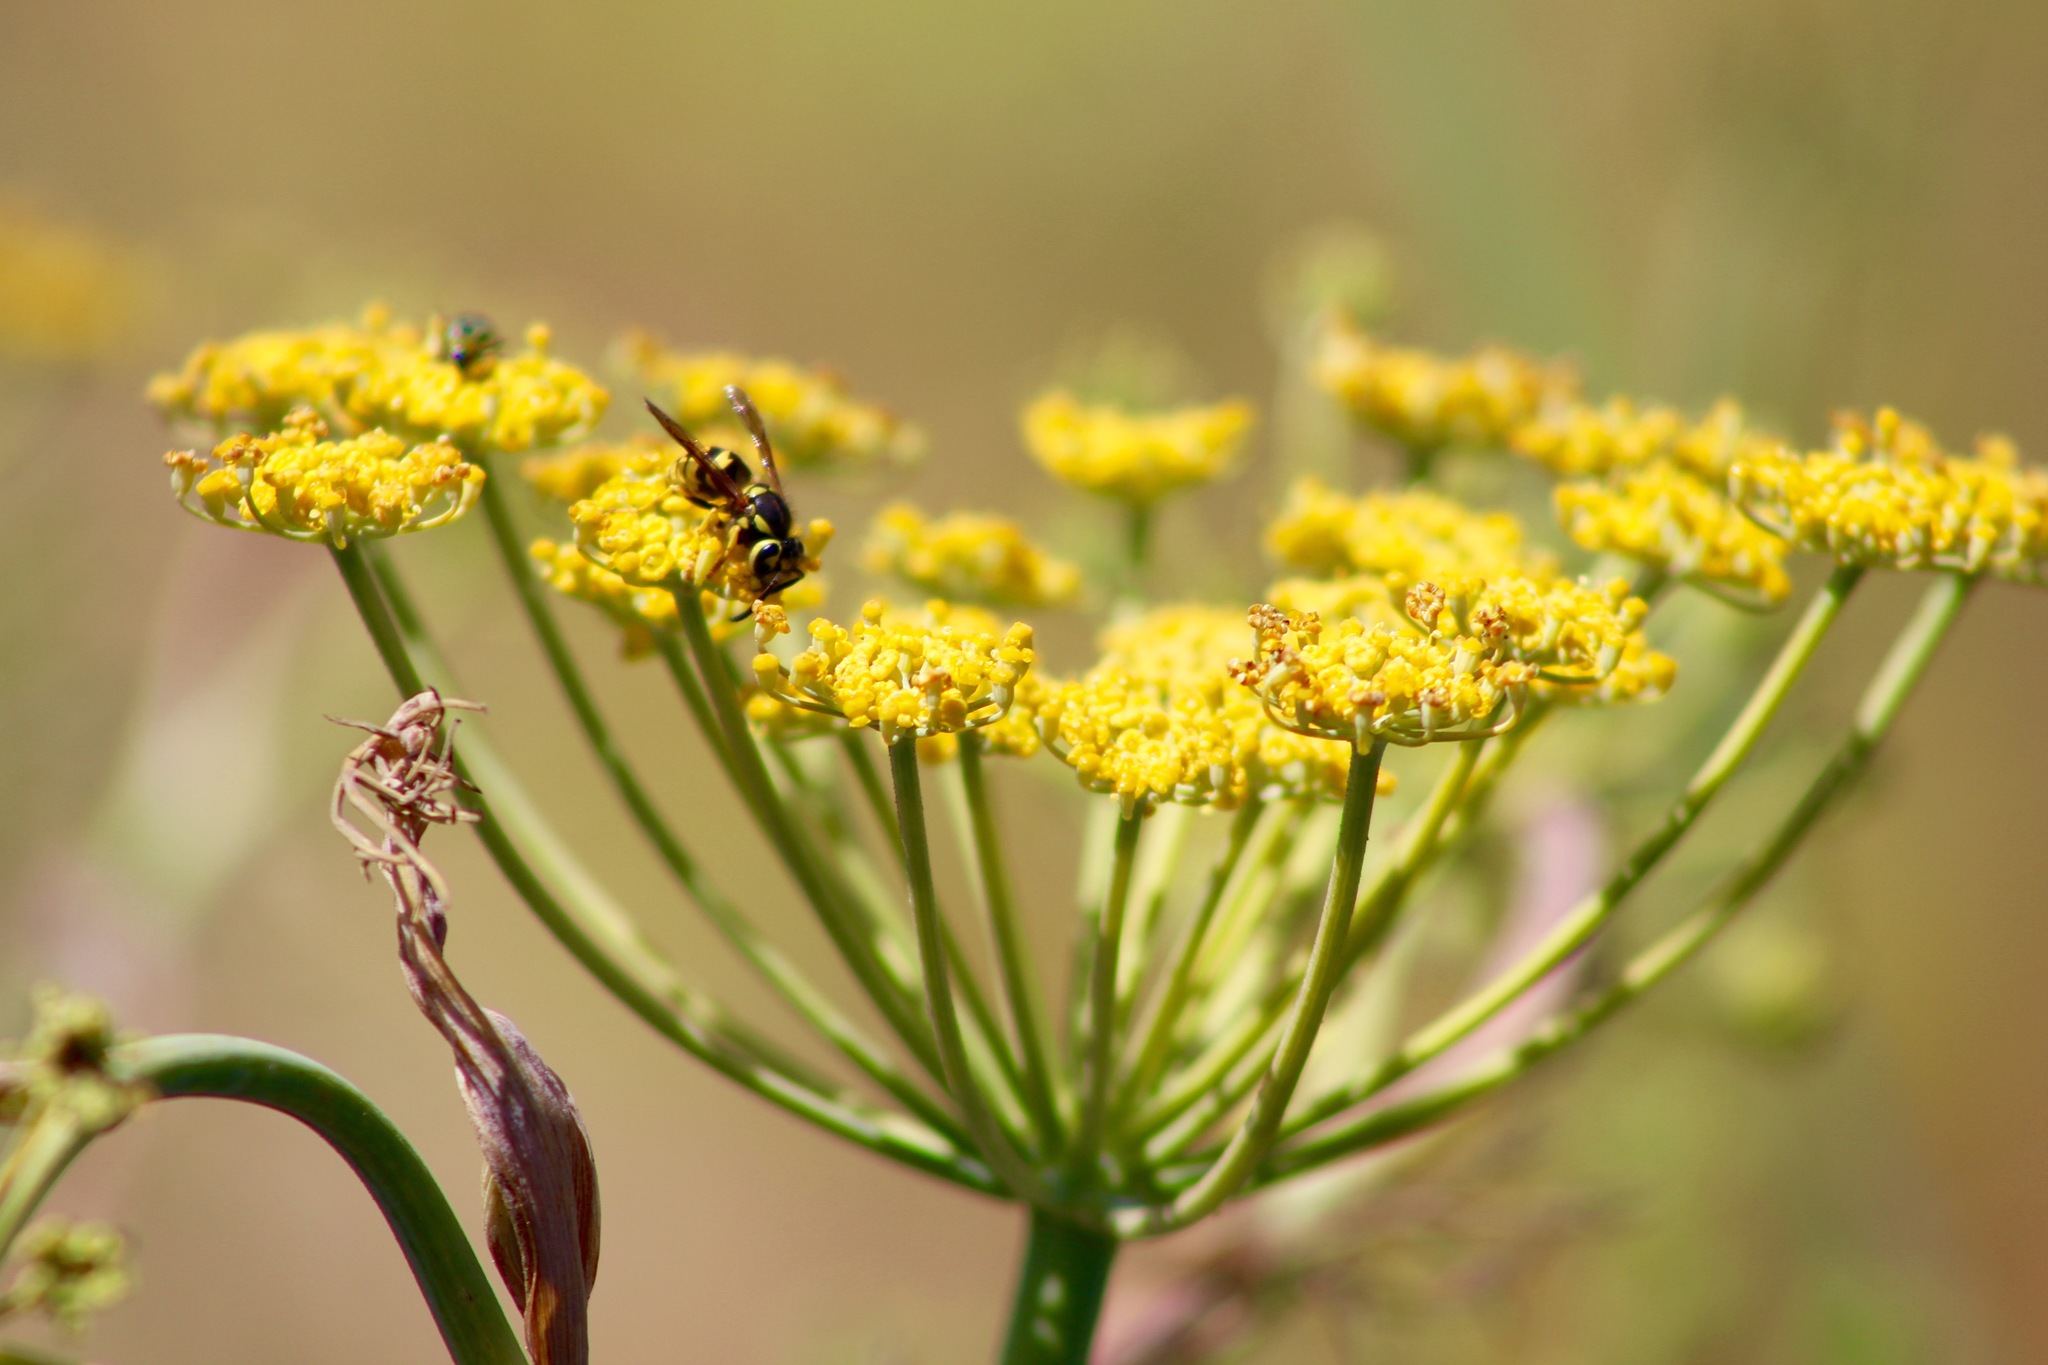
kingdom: Animalia
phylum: Arthropoda
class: Insecta
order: Hymenoptera
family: Vespidae
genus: Vespula
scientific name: Vespula pensylvanica
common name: Western yellowjacket
